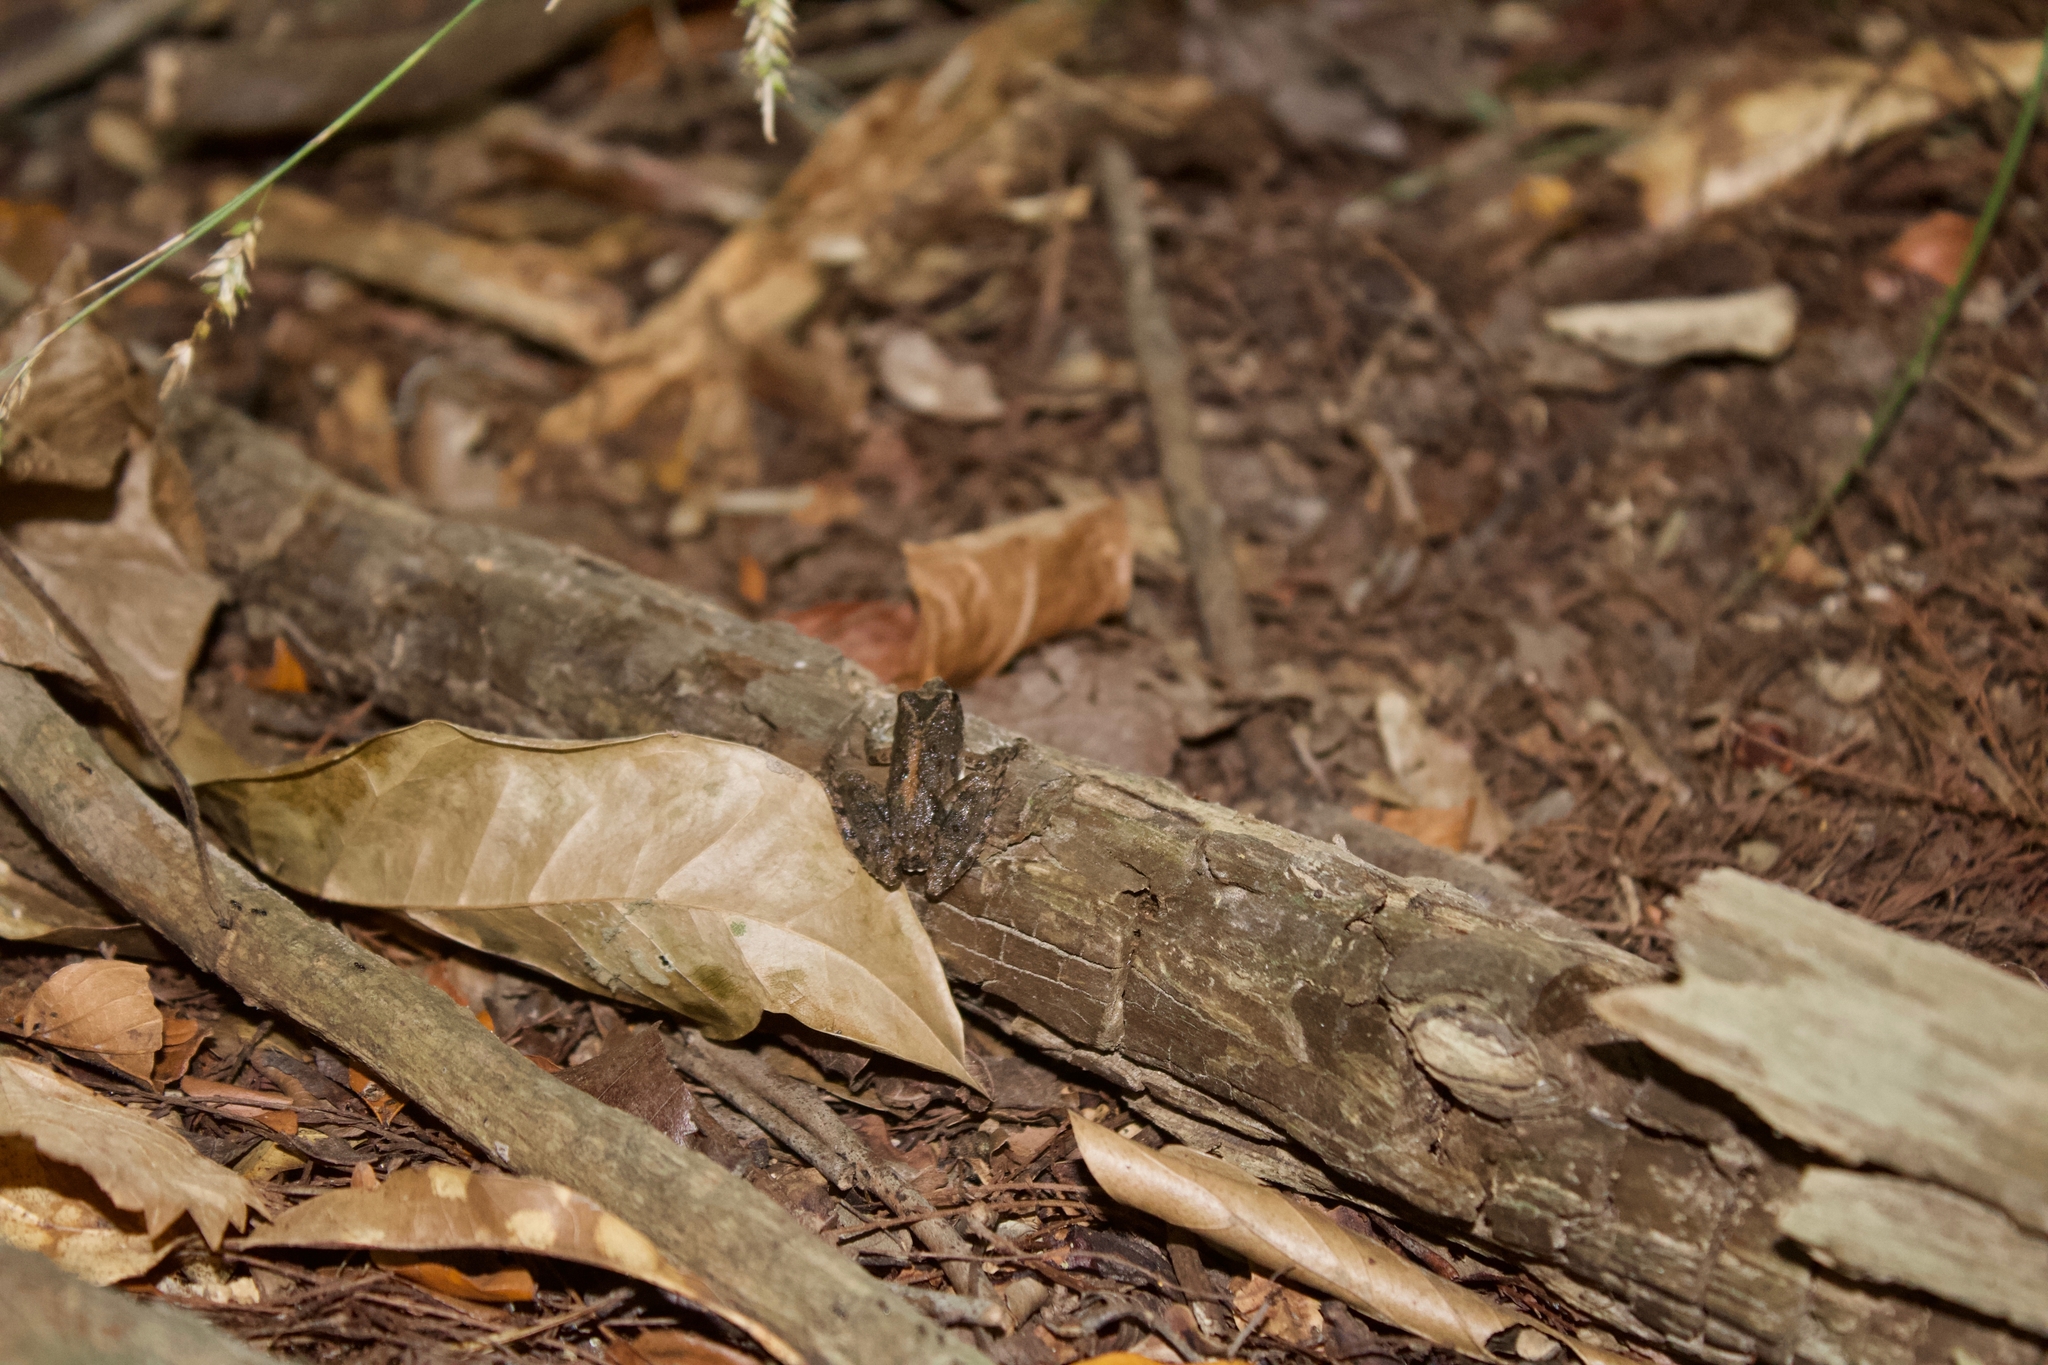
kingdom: Animalia
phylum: Chordata
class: Amphibia
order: Anura
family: Hylidae
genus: Acris
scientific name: Acris blanchardi
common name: Blanchard's cricket frog
